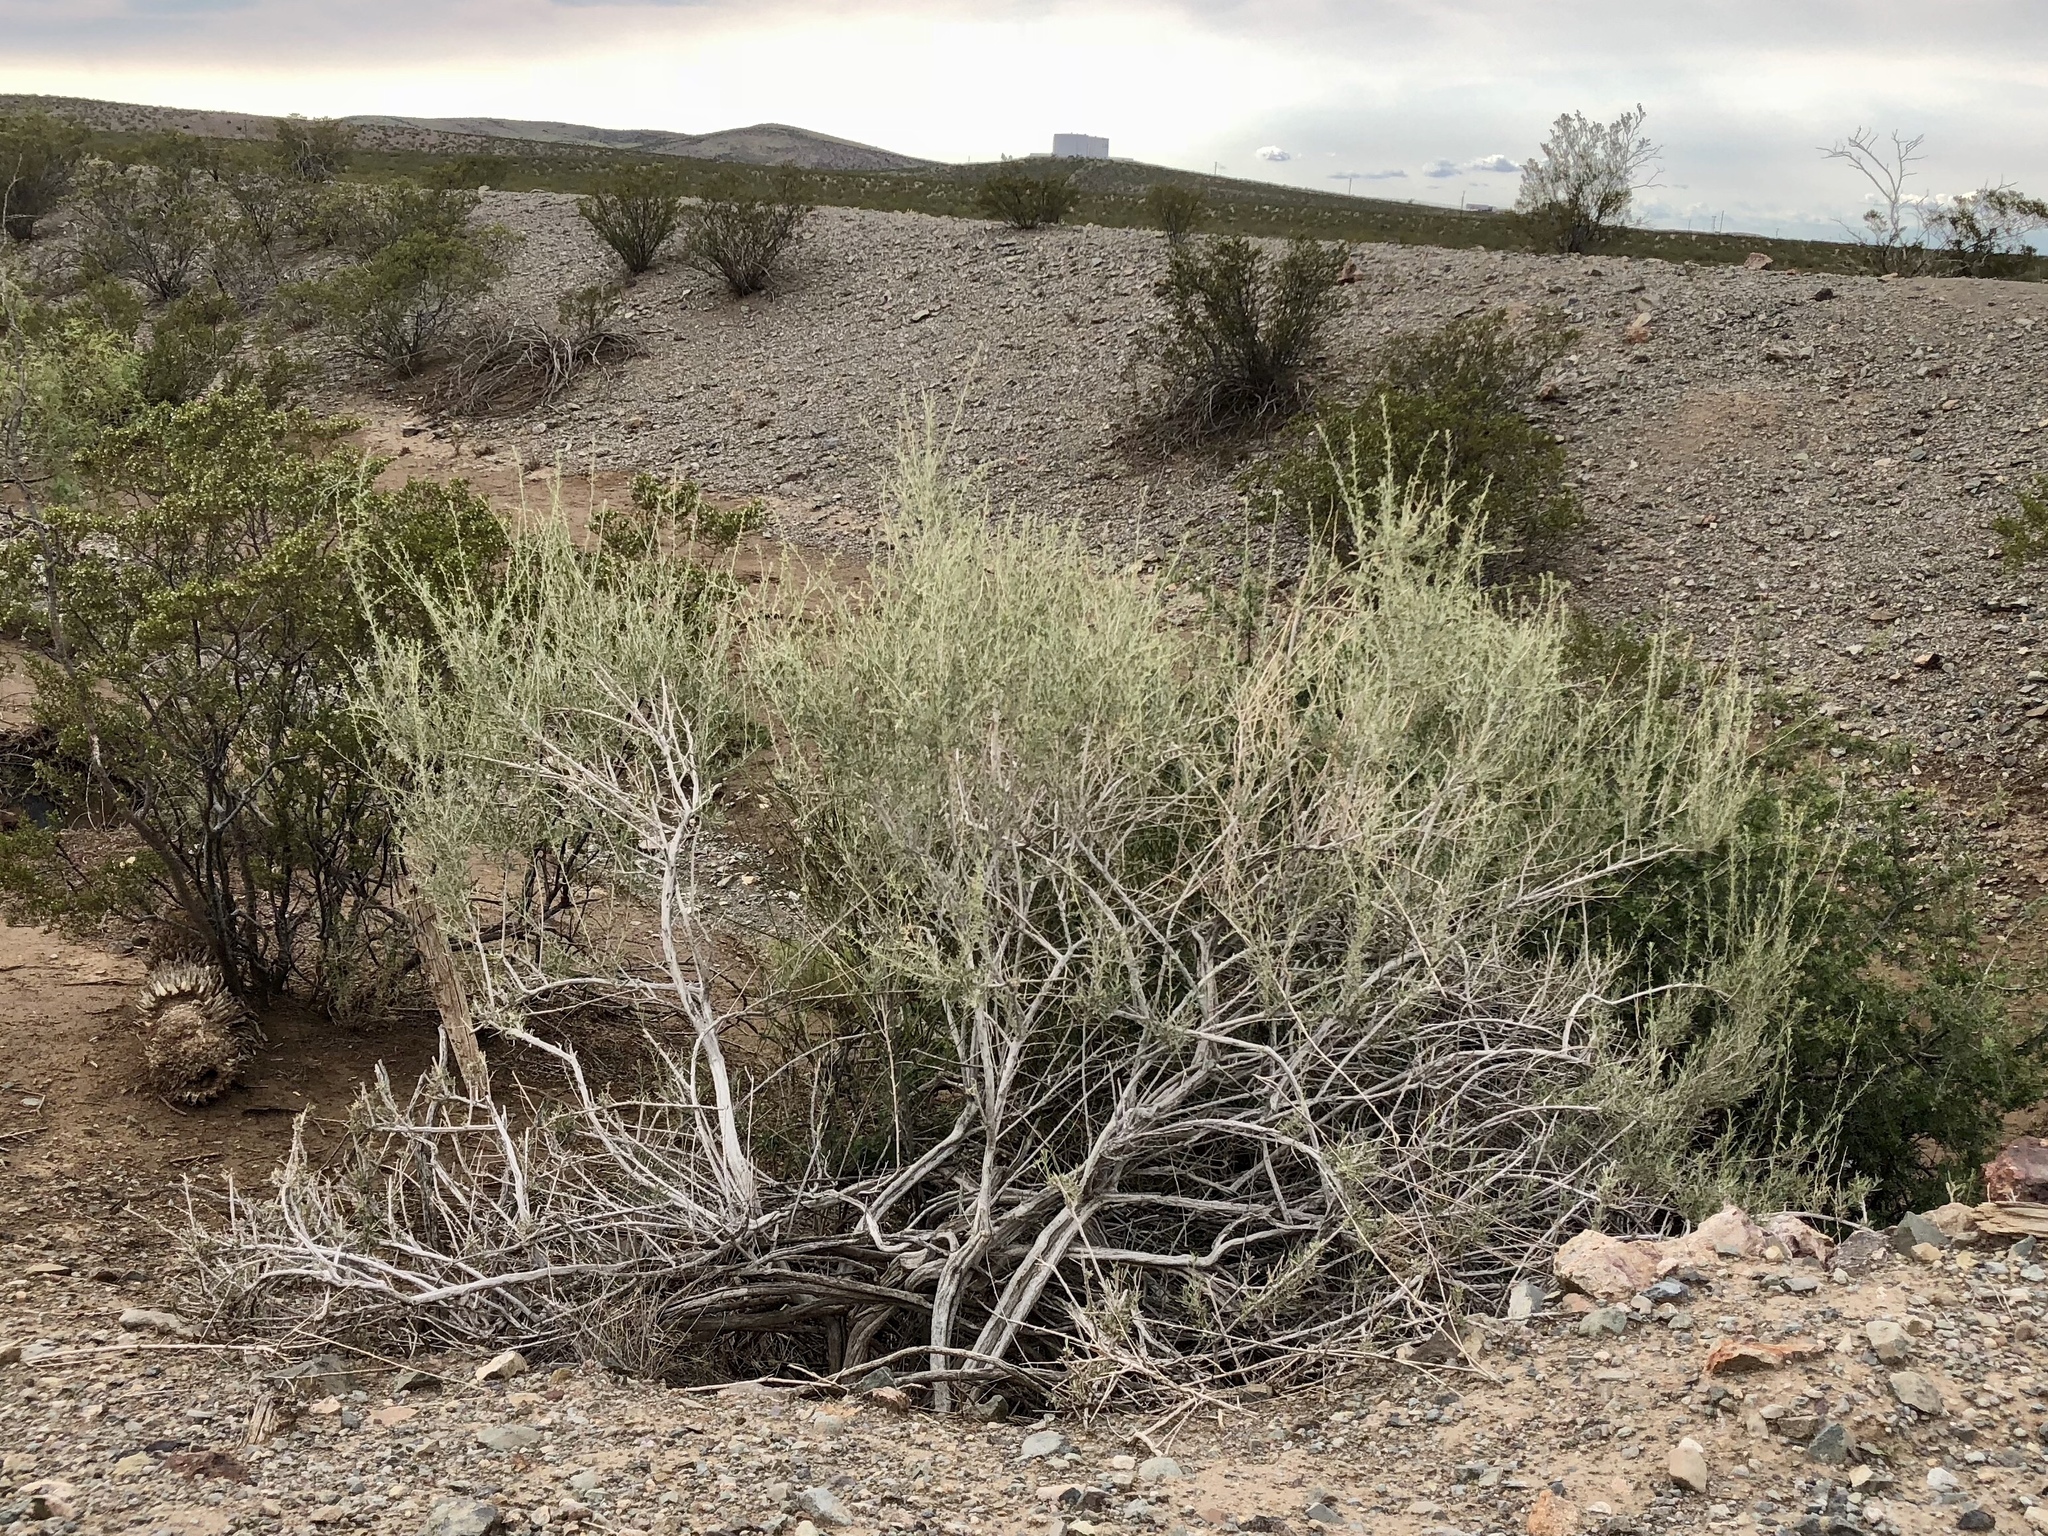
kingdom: Plantae
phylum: Tracheophyta
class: Magnoliopsida
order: Caryophyllales
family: Amaranthaceae
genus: Atriplex
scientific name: Atriplex canescens
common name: Four-wing saltbush
